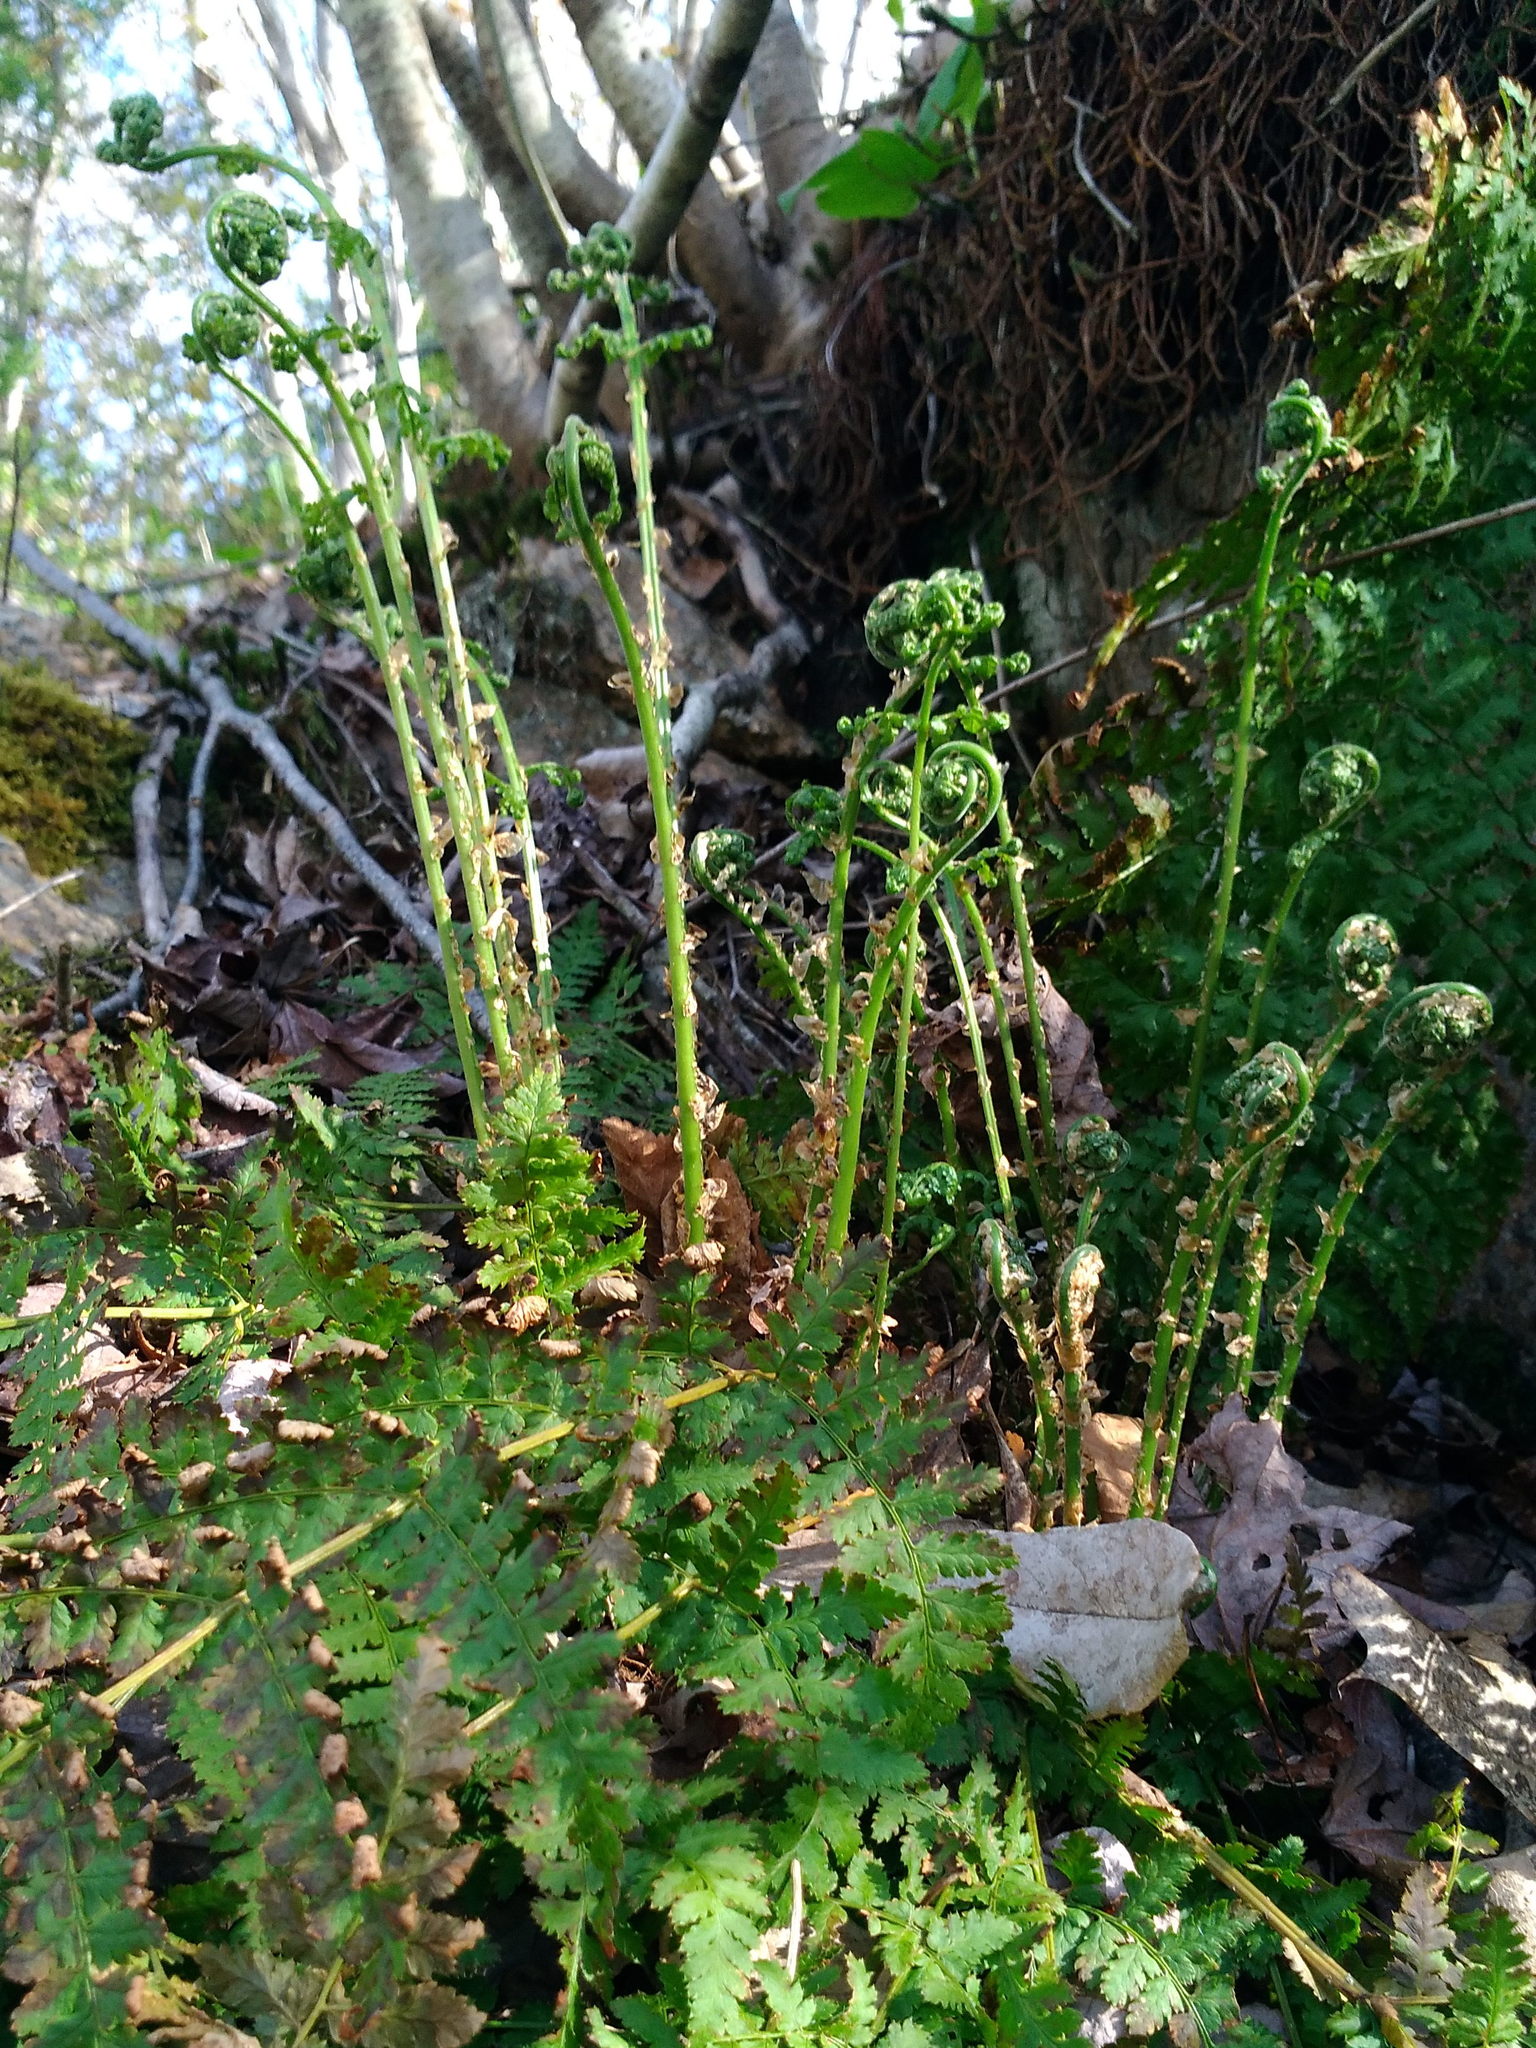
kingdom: Plantae
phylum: Tracheophyta
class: Polypodiopsida
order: Polypodiales
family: Dryopteridaceae
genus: Dryopteris
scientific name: Dryopteris intermedia
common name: Evergreen wood fern
